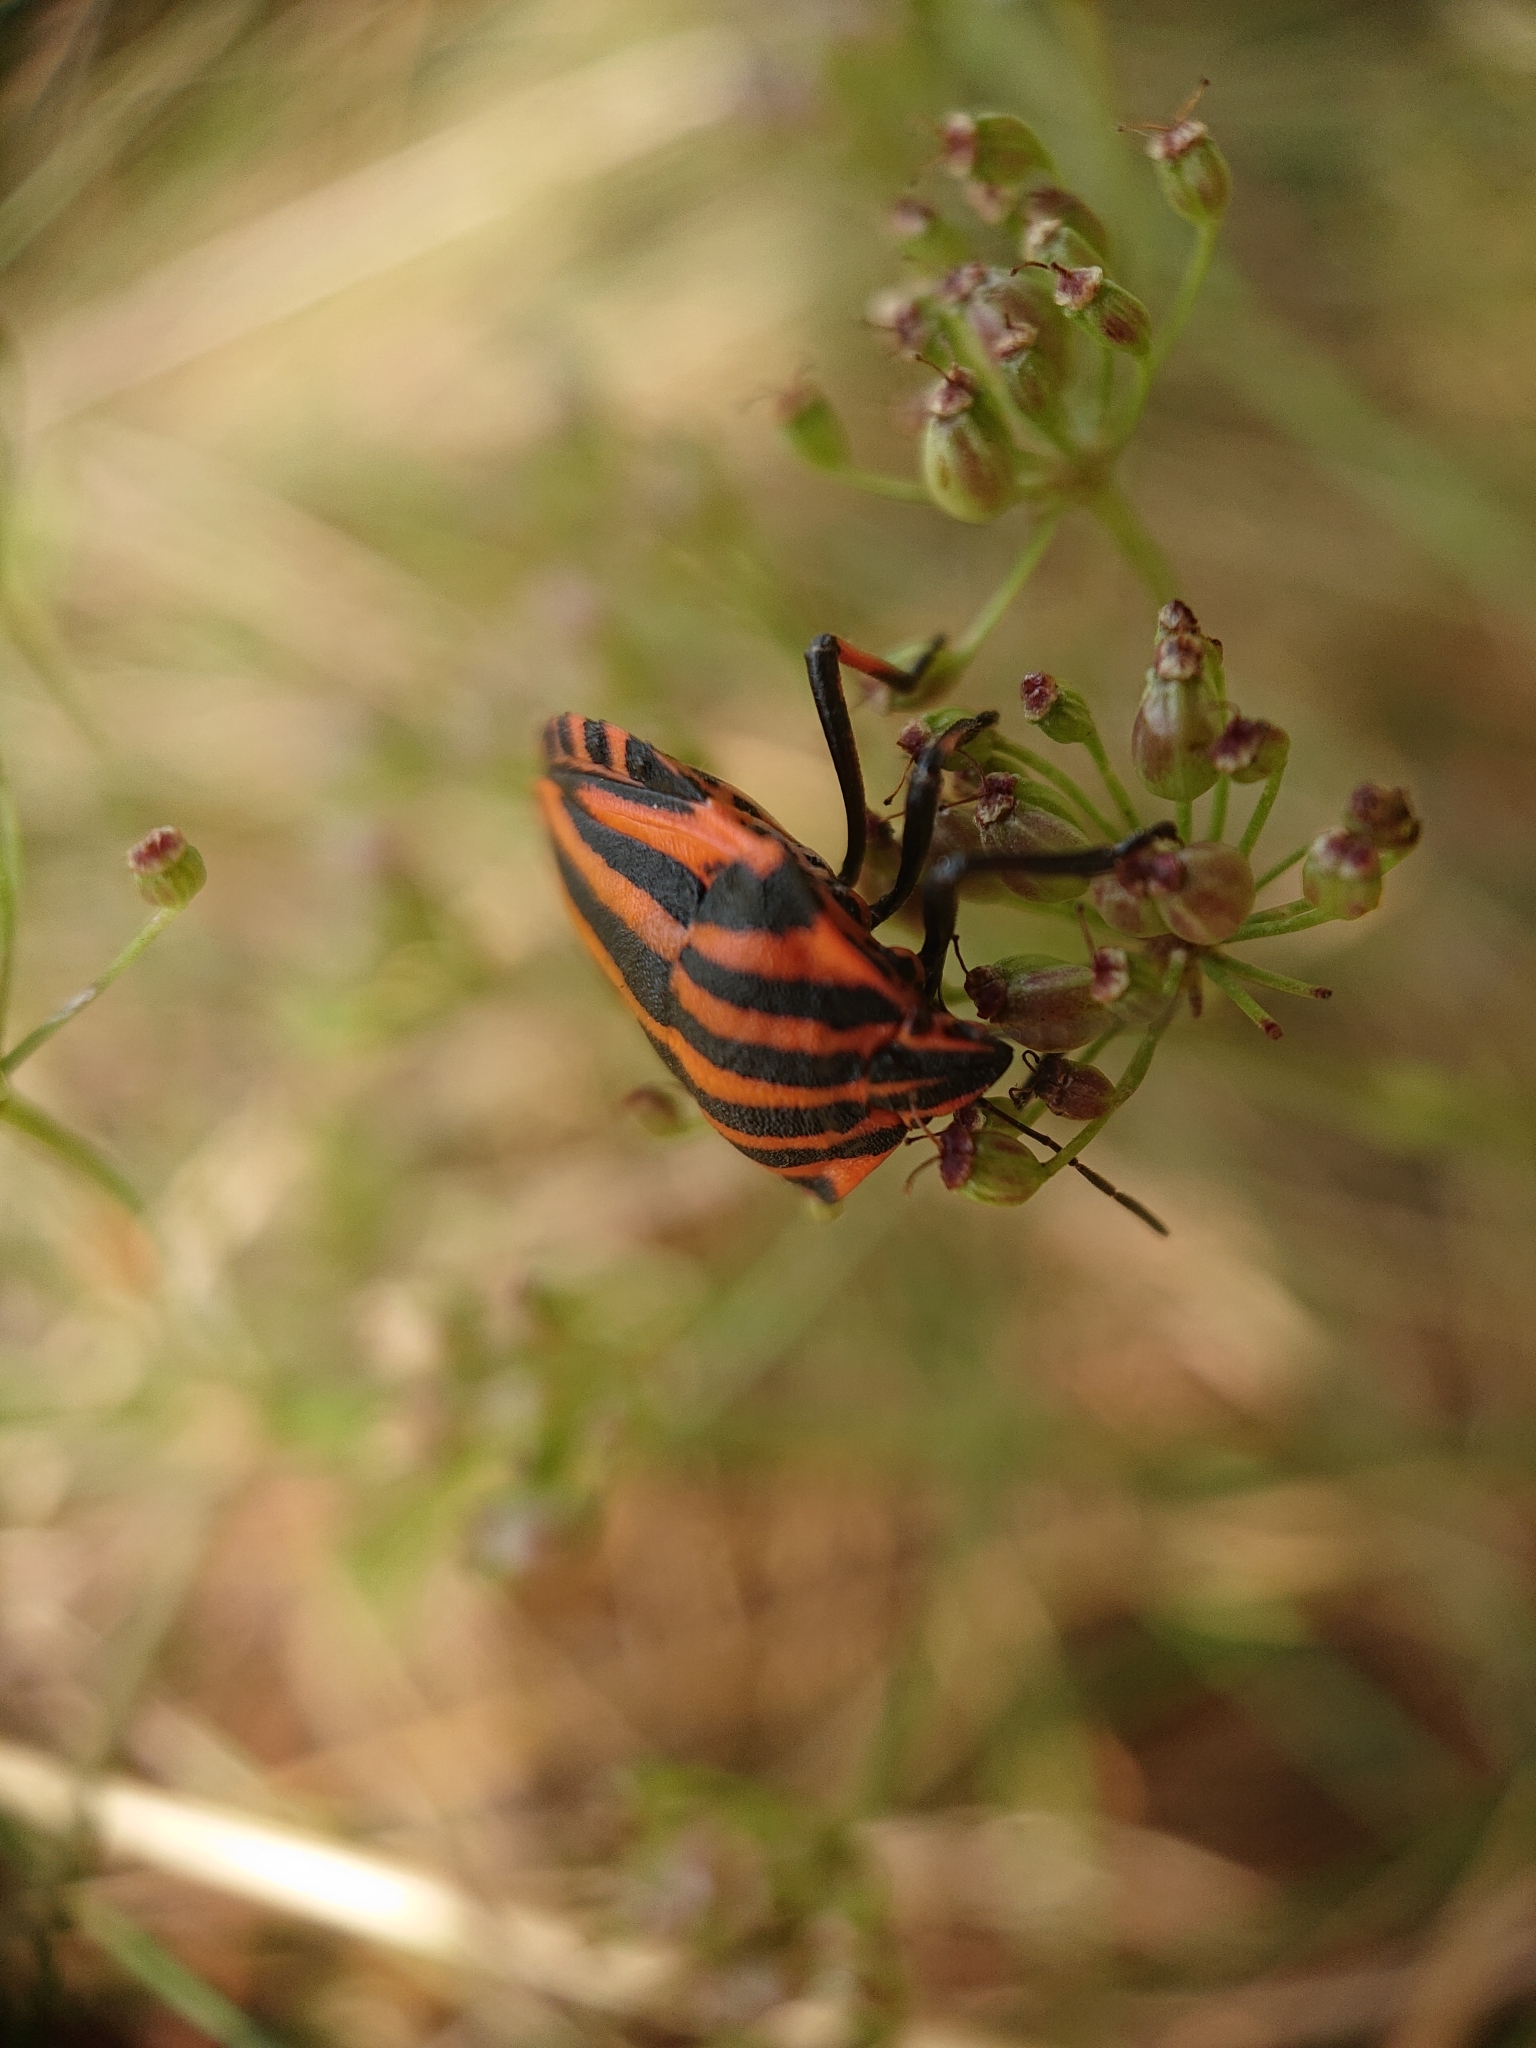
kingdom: Animalia
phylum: Arthropoda
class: Insecta
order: Hemiptera
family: Pentatomidae
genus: Graphosoma
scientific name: Graphosoma italicum
